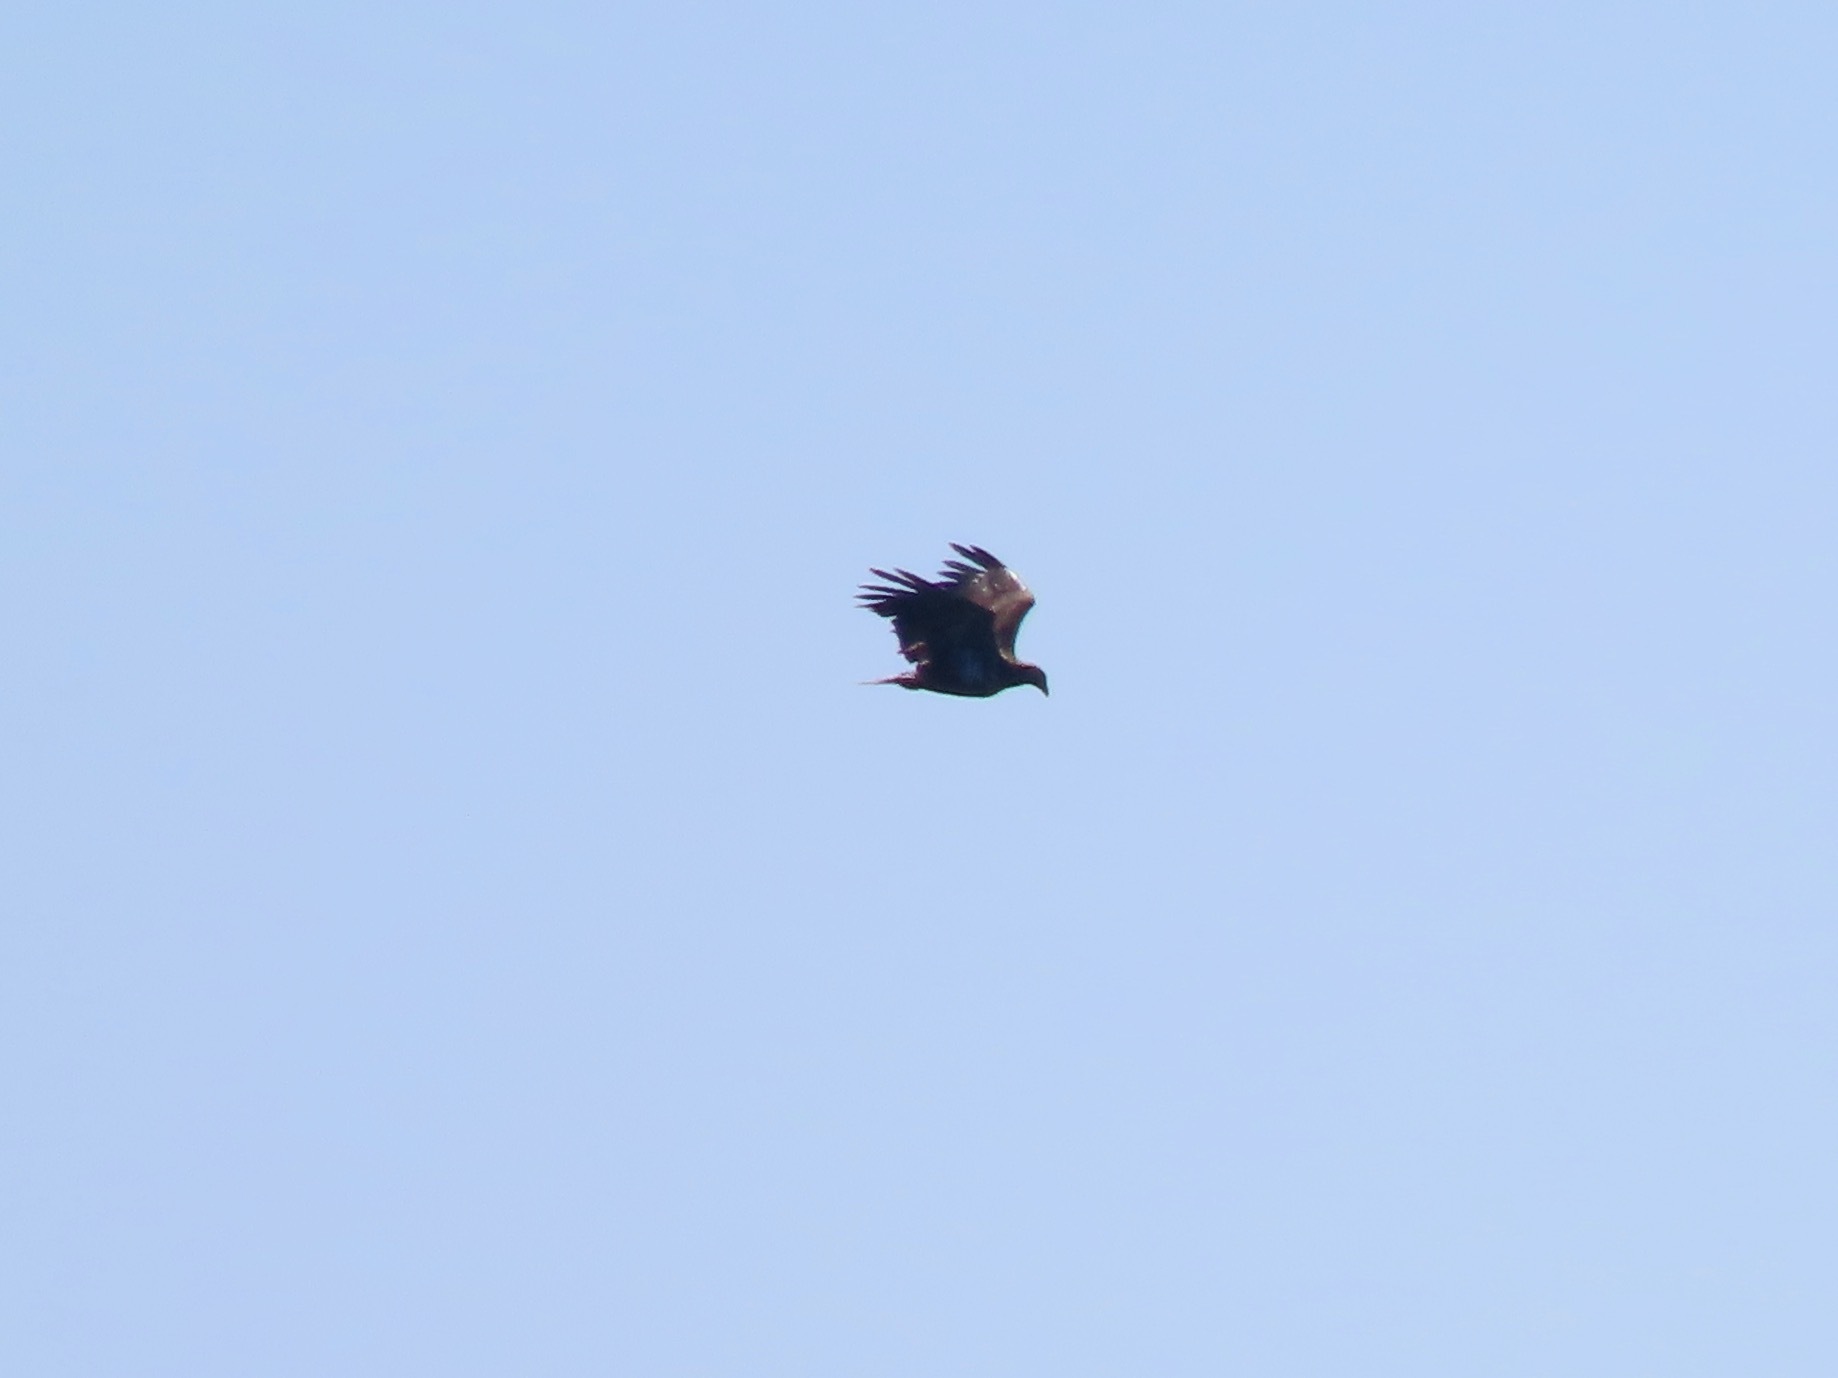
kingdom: Animalia
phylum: Chordata
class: Aves
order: Accipitriformes
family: Accipitridae
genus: Haliaeetus
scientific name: Haliaeetus leucocephalus
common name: Bald eagle
